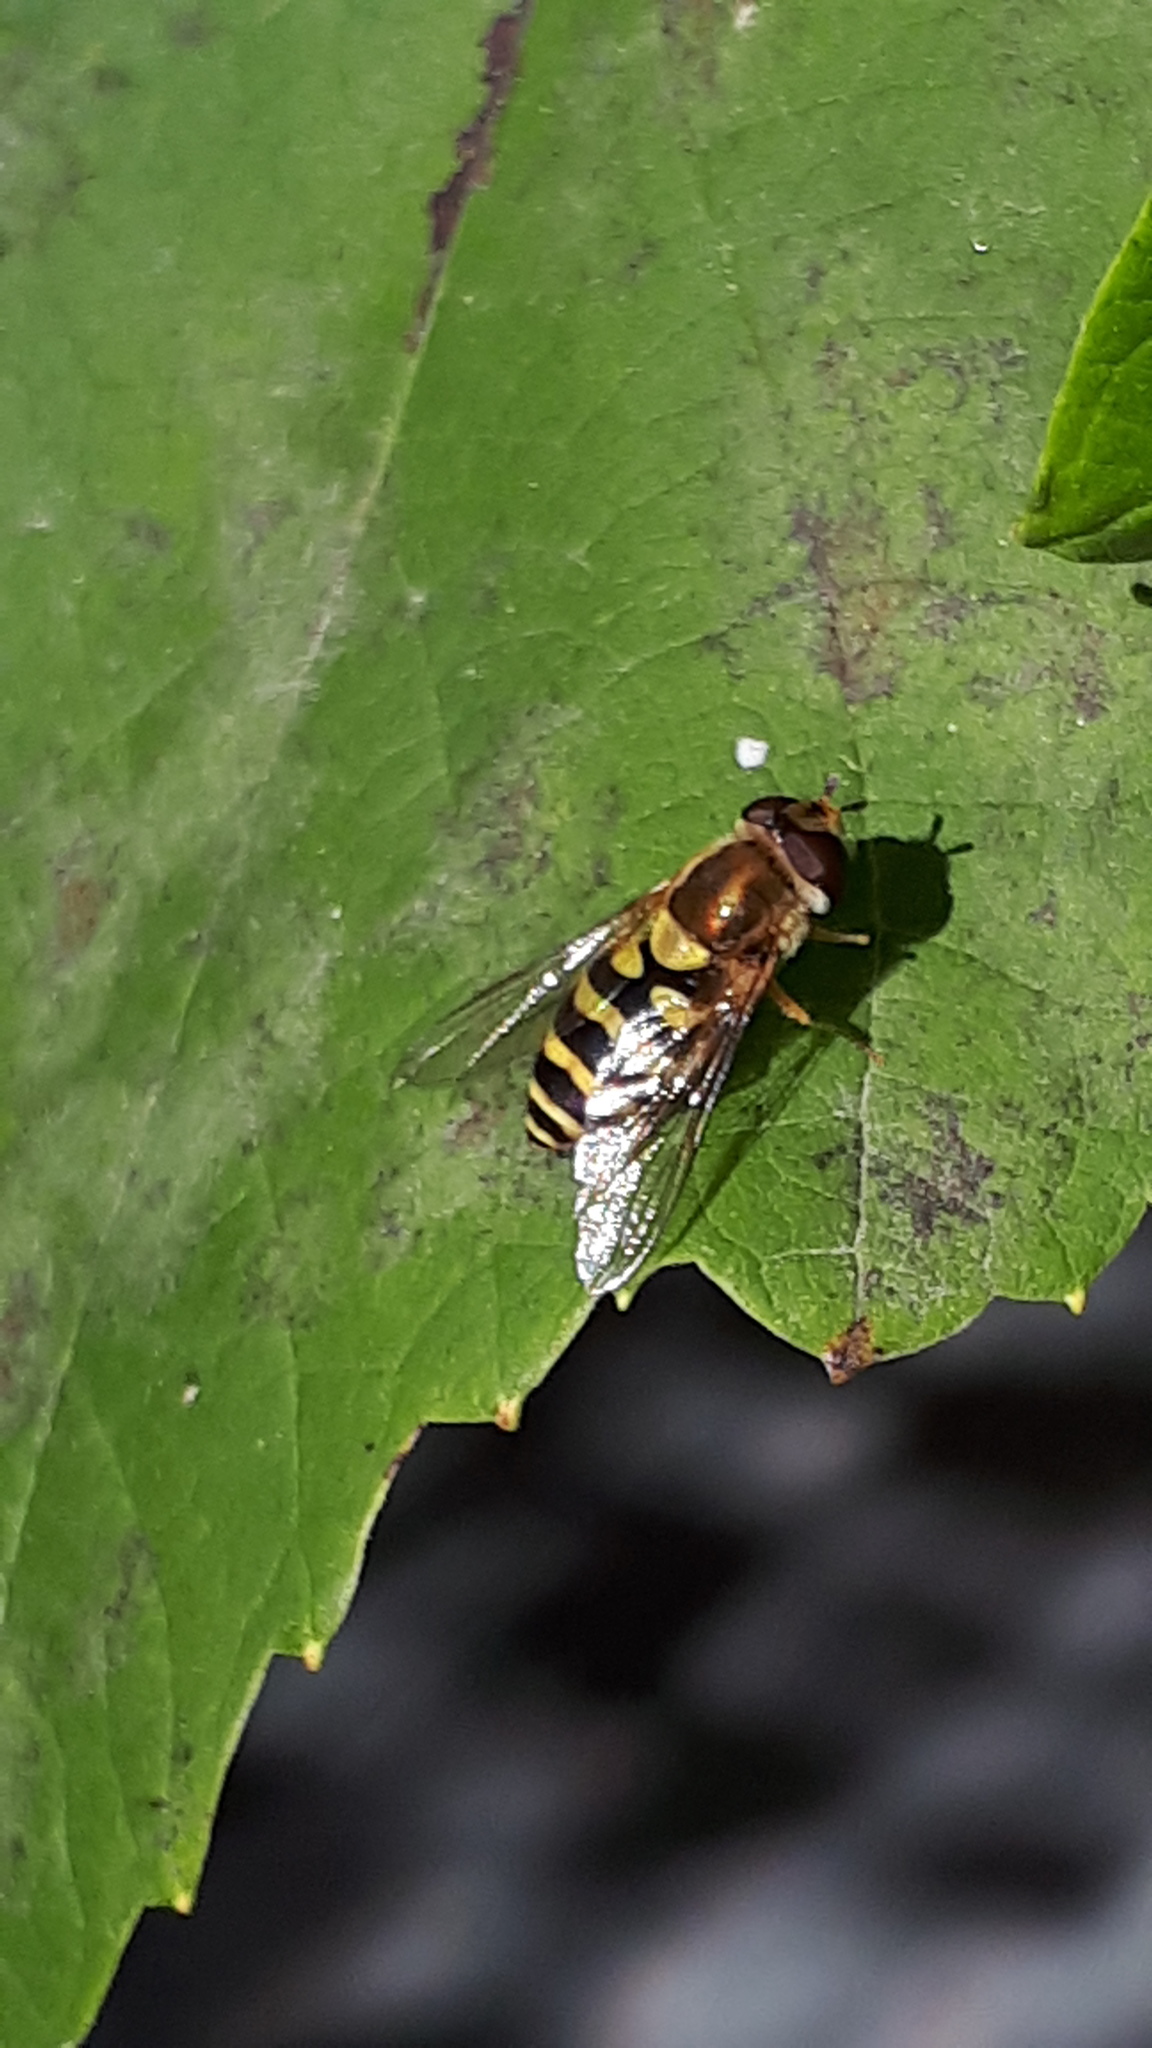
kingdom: Animalia
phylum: Arthropoda
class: Insecta
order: Diptera
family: Syrphidae
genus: Syrphus
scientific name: Syrphus
